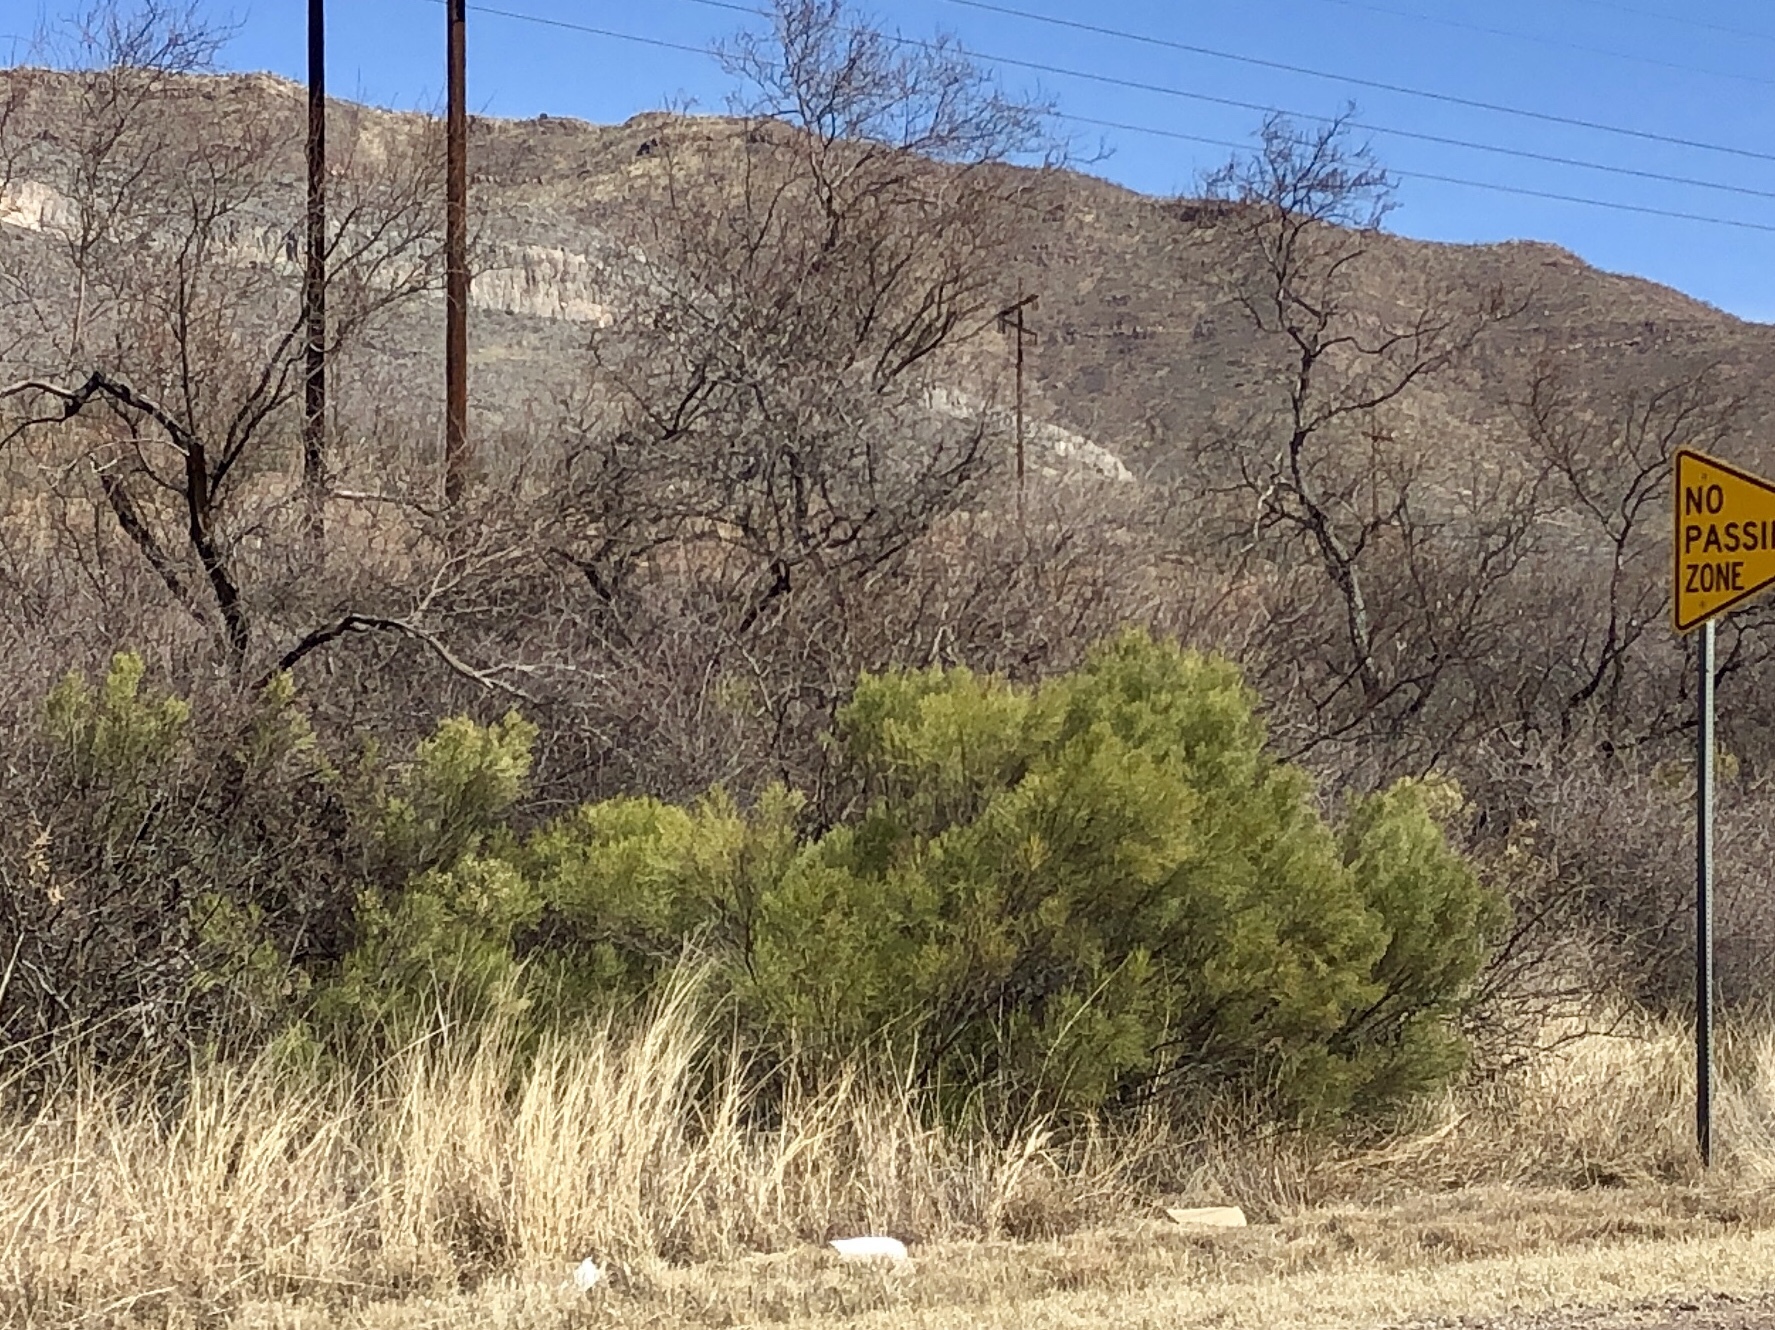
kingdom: Plantae
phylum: Tracheophyta
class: Magnoliopsida
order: Asterales
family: Asteraceae
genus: Baccharis
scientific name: Baccharis sarothroides
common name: Desert-broom
